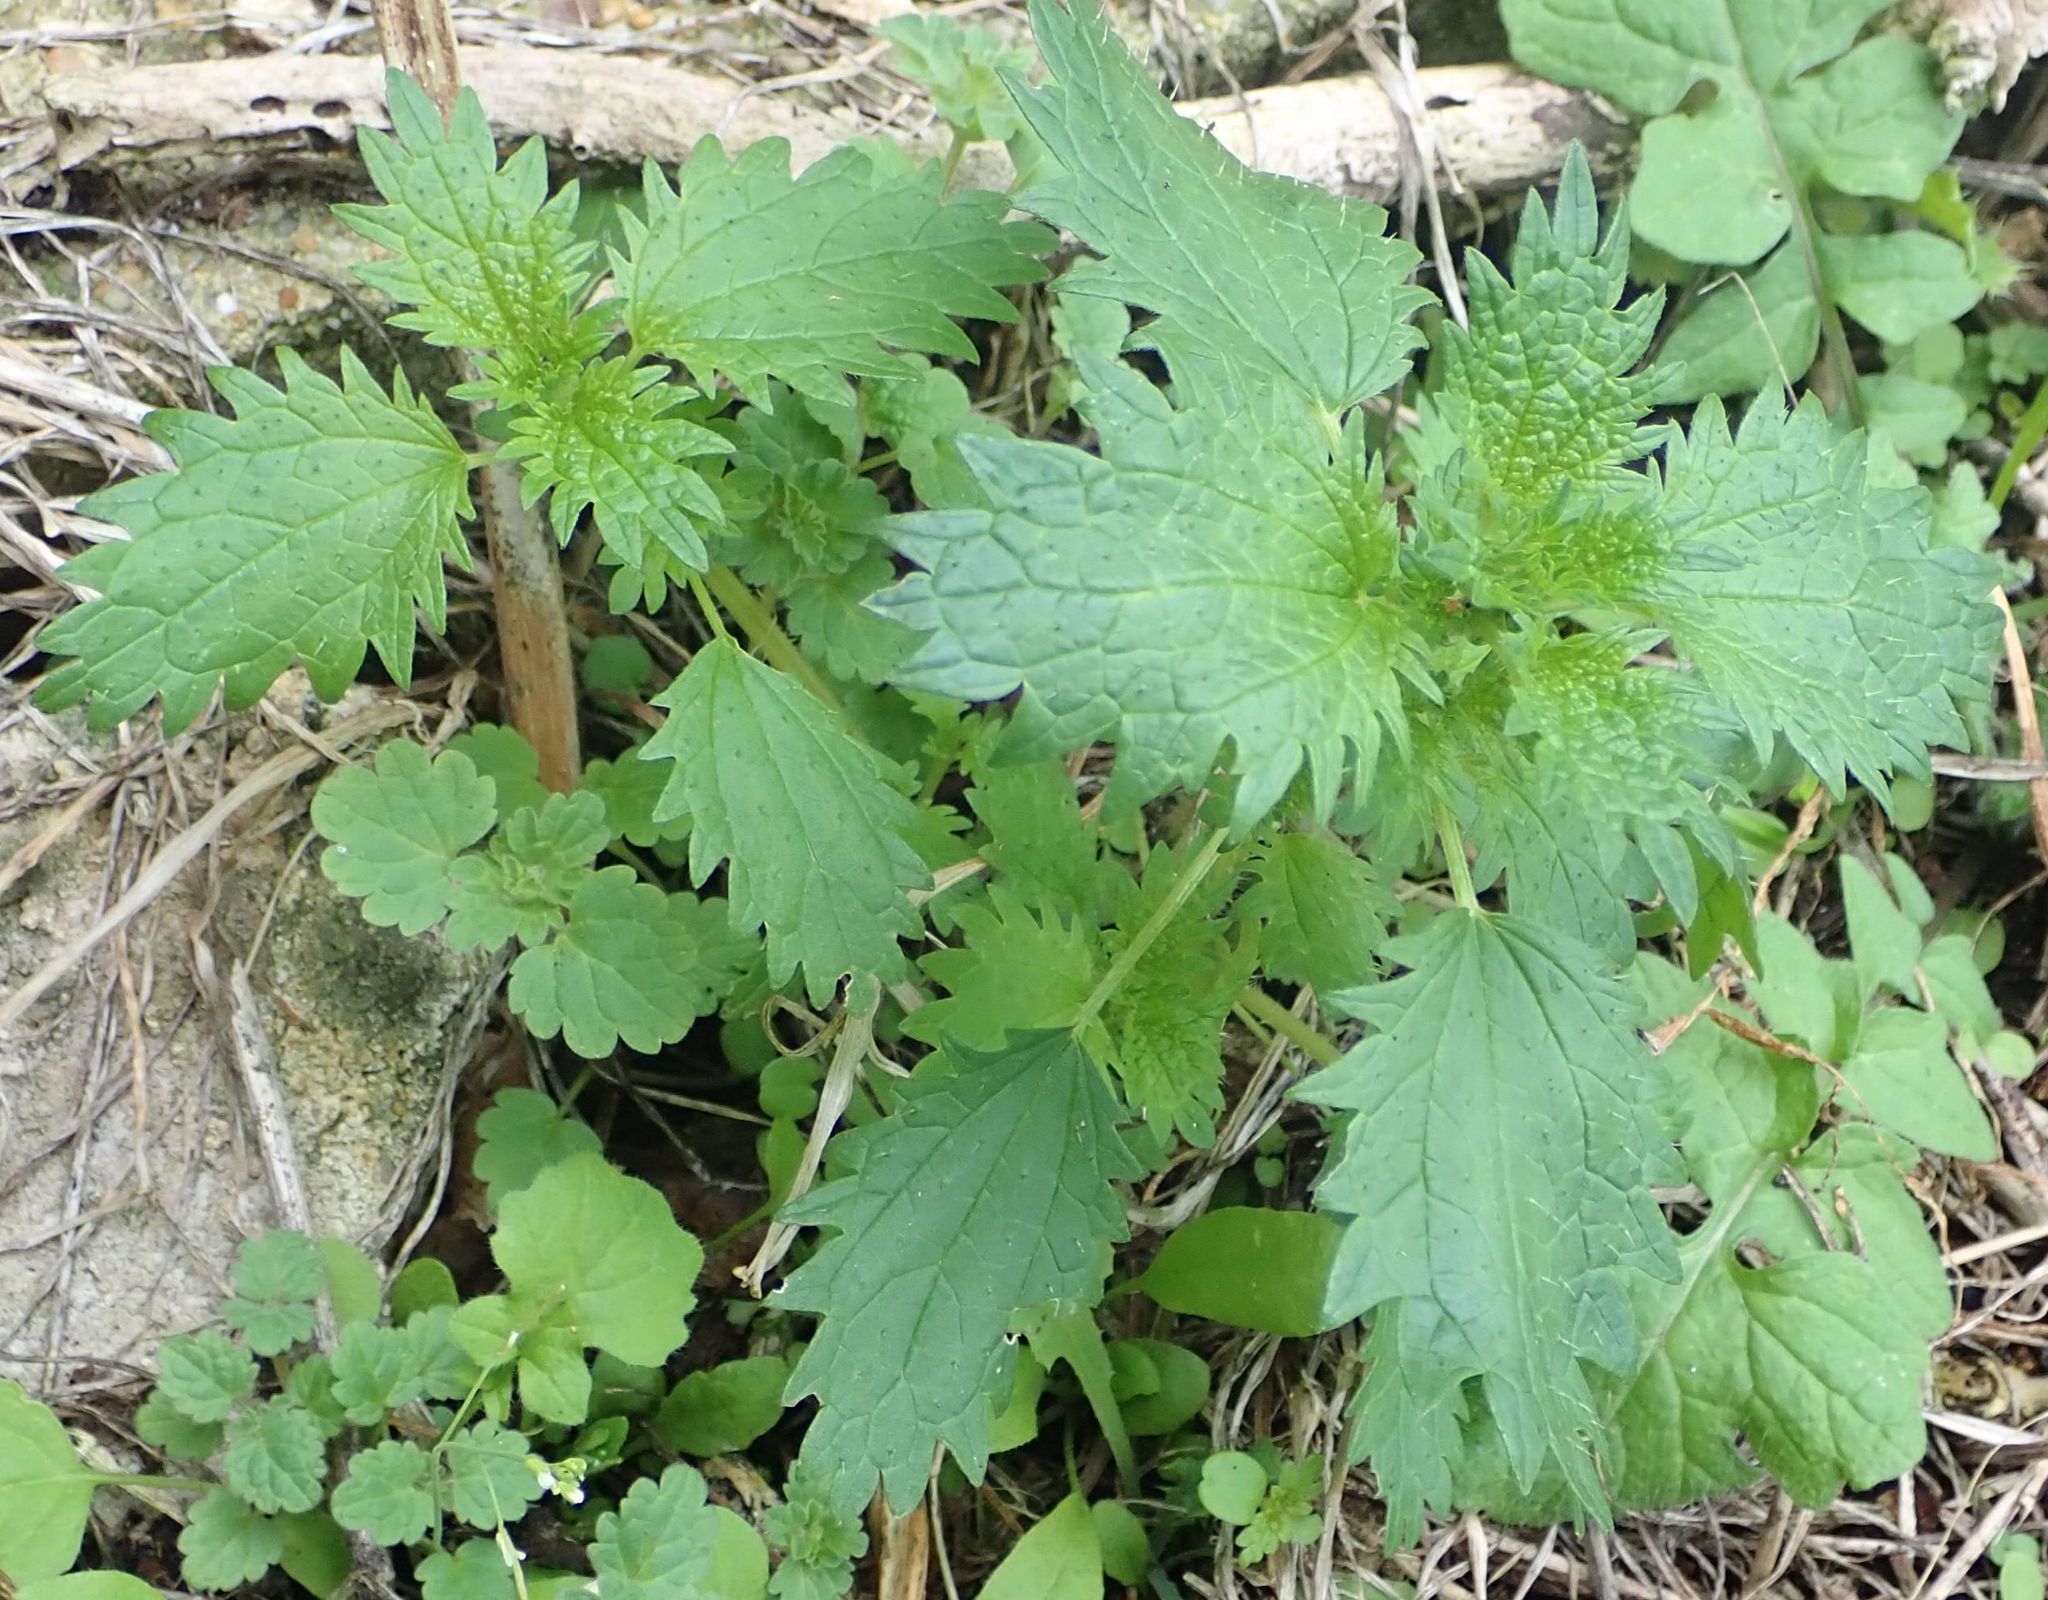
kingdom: Plantae
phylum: Tracheophyta
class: Magnoliopsida
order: Rosales
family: Urticaceae
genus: Urtica
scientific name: Urtica urens
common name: Dwarf nettle
